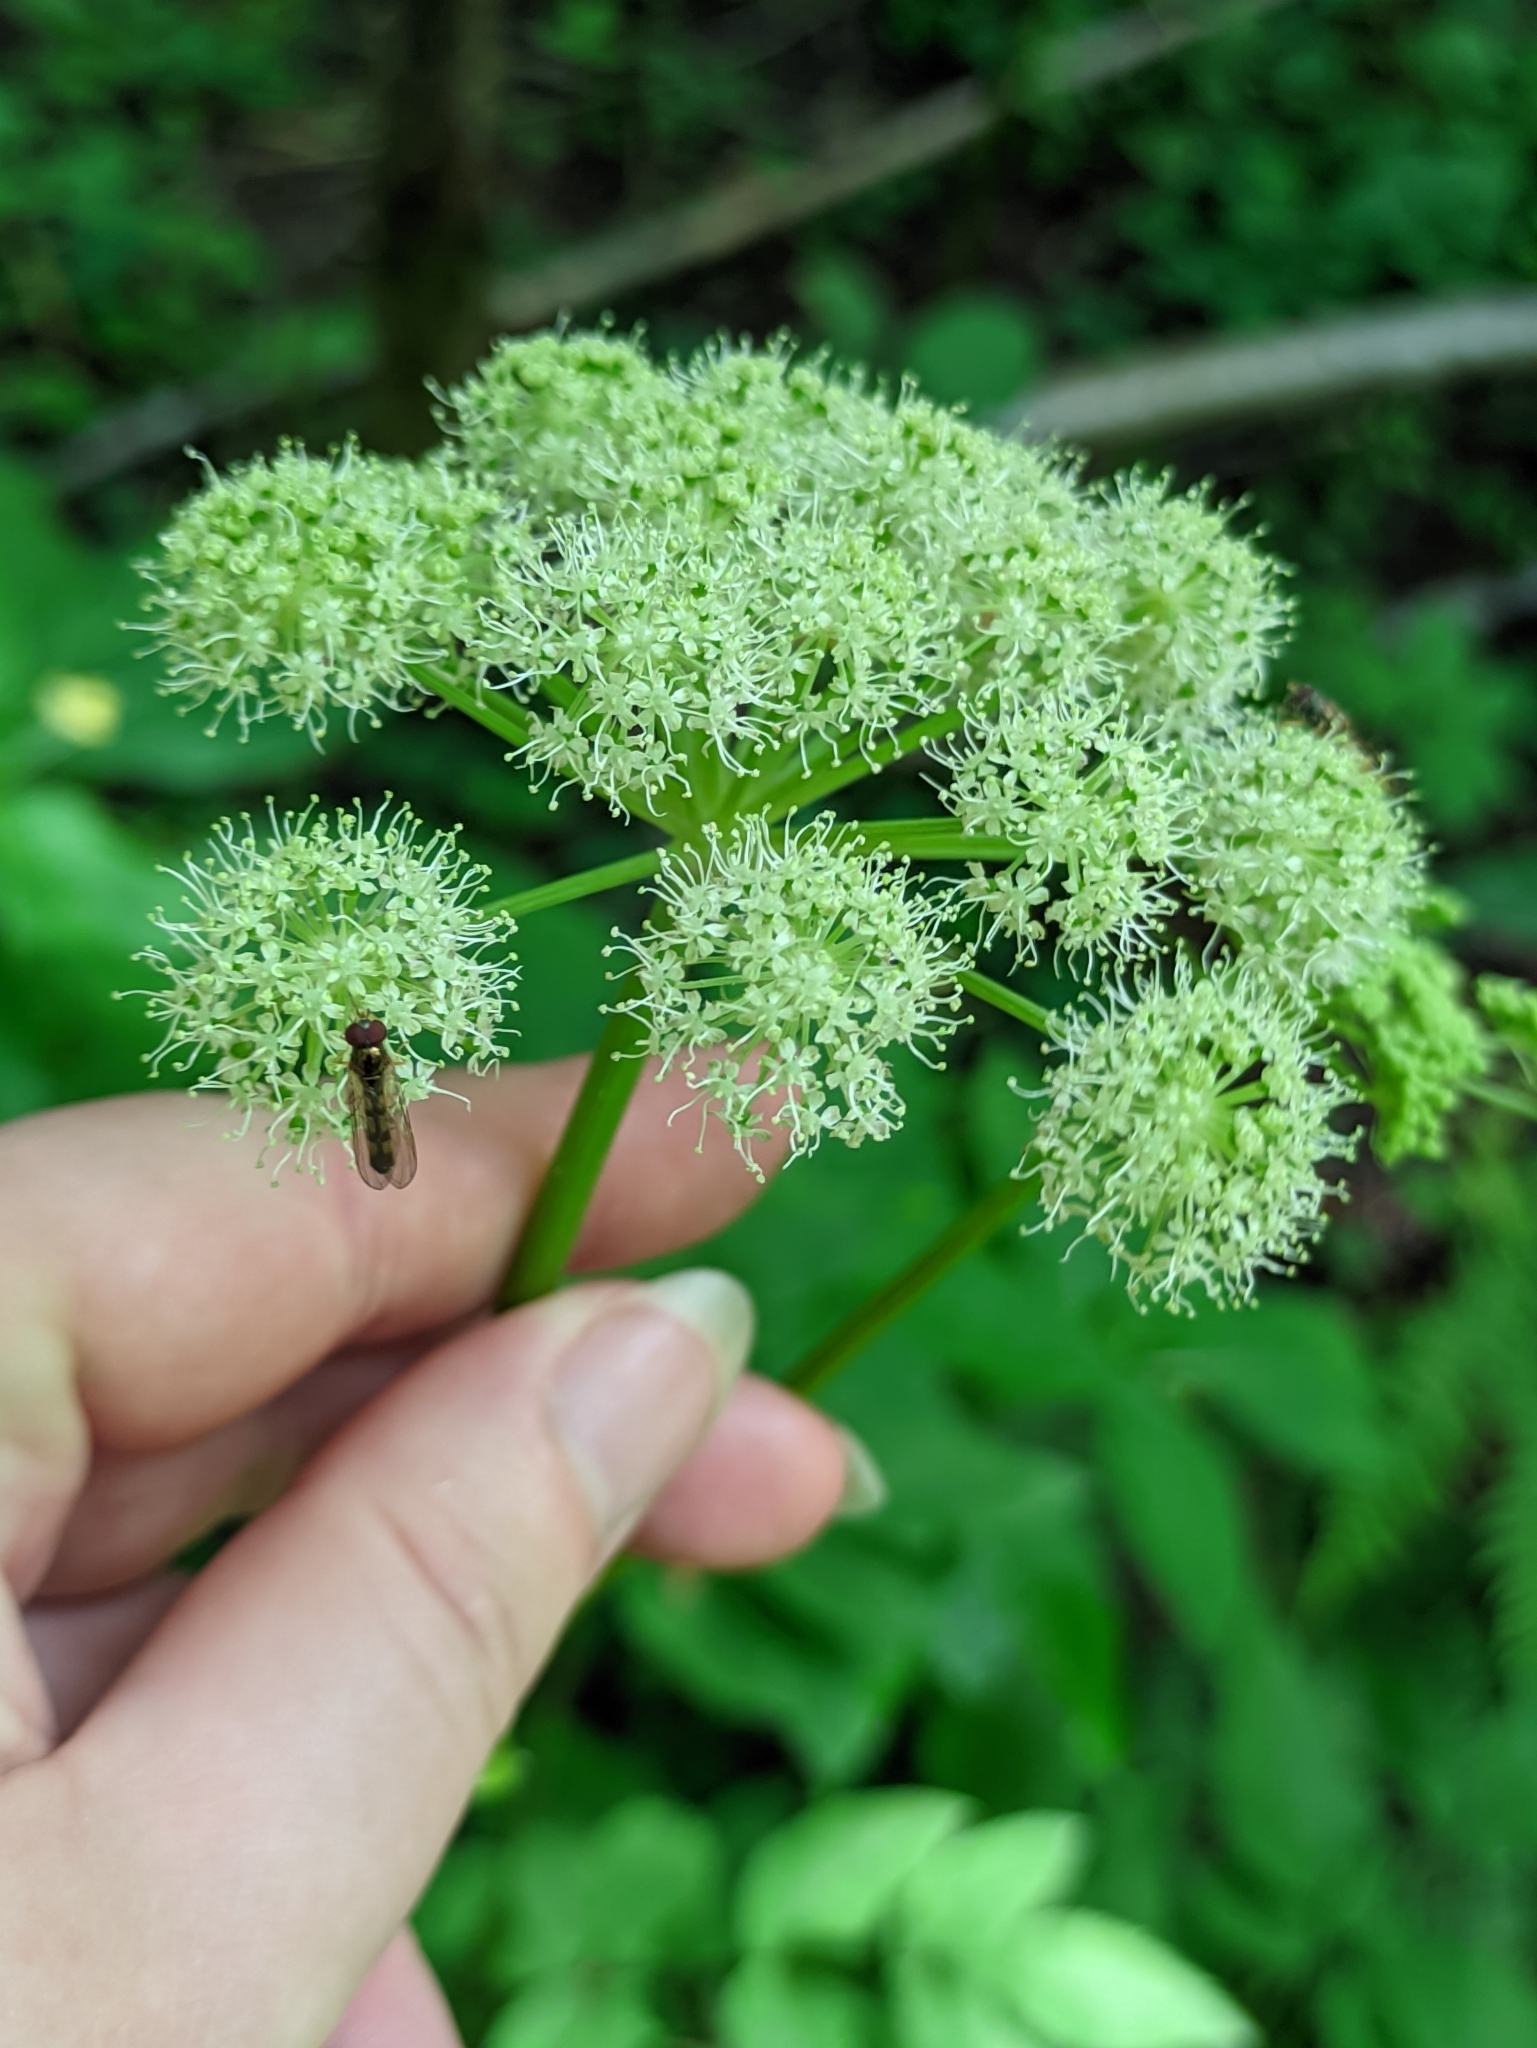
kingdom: Plantae
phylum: Tracheophyta
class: Magnoliopsida
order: Apiales
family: Apiaceae
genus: Angelica
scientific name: Angelica sylvestris
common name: Wild angelica
